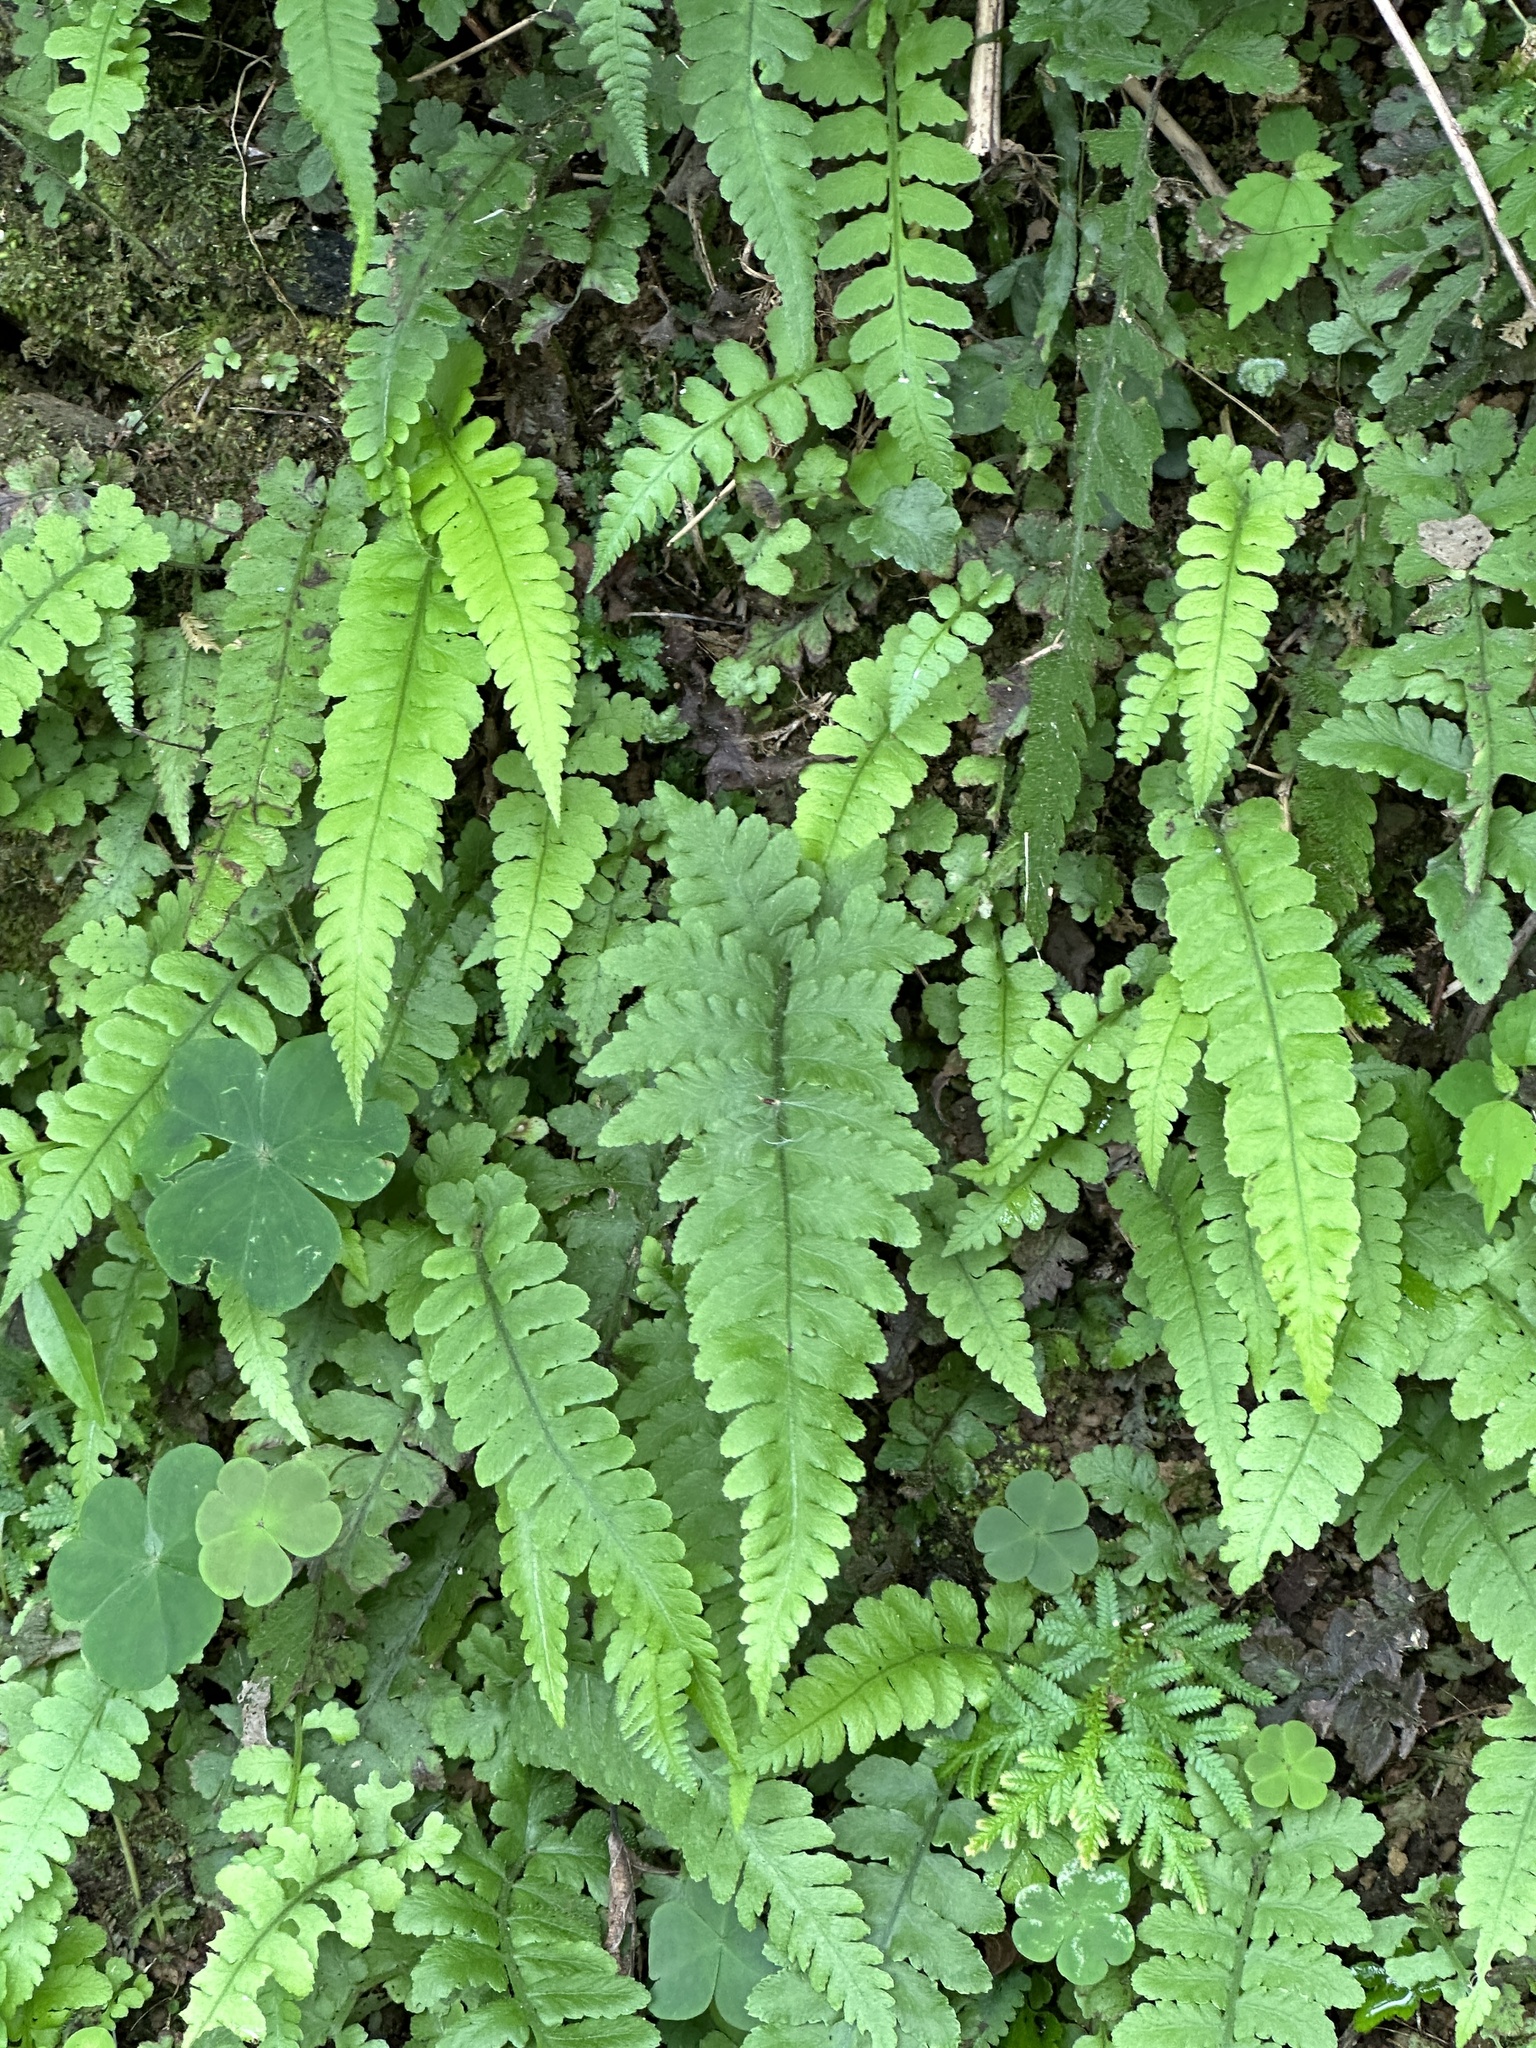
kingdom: Plantae
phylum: Tracheophyta
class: Polypodiopsida
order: Polypodiales
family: Athyriaceae
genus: Deparia
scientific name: Deparia petersenii
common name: Japanese false spleenwort
